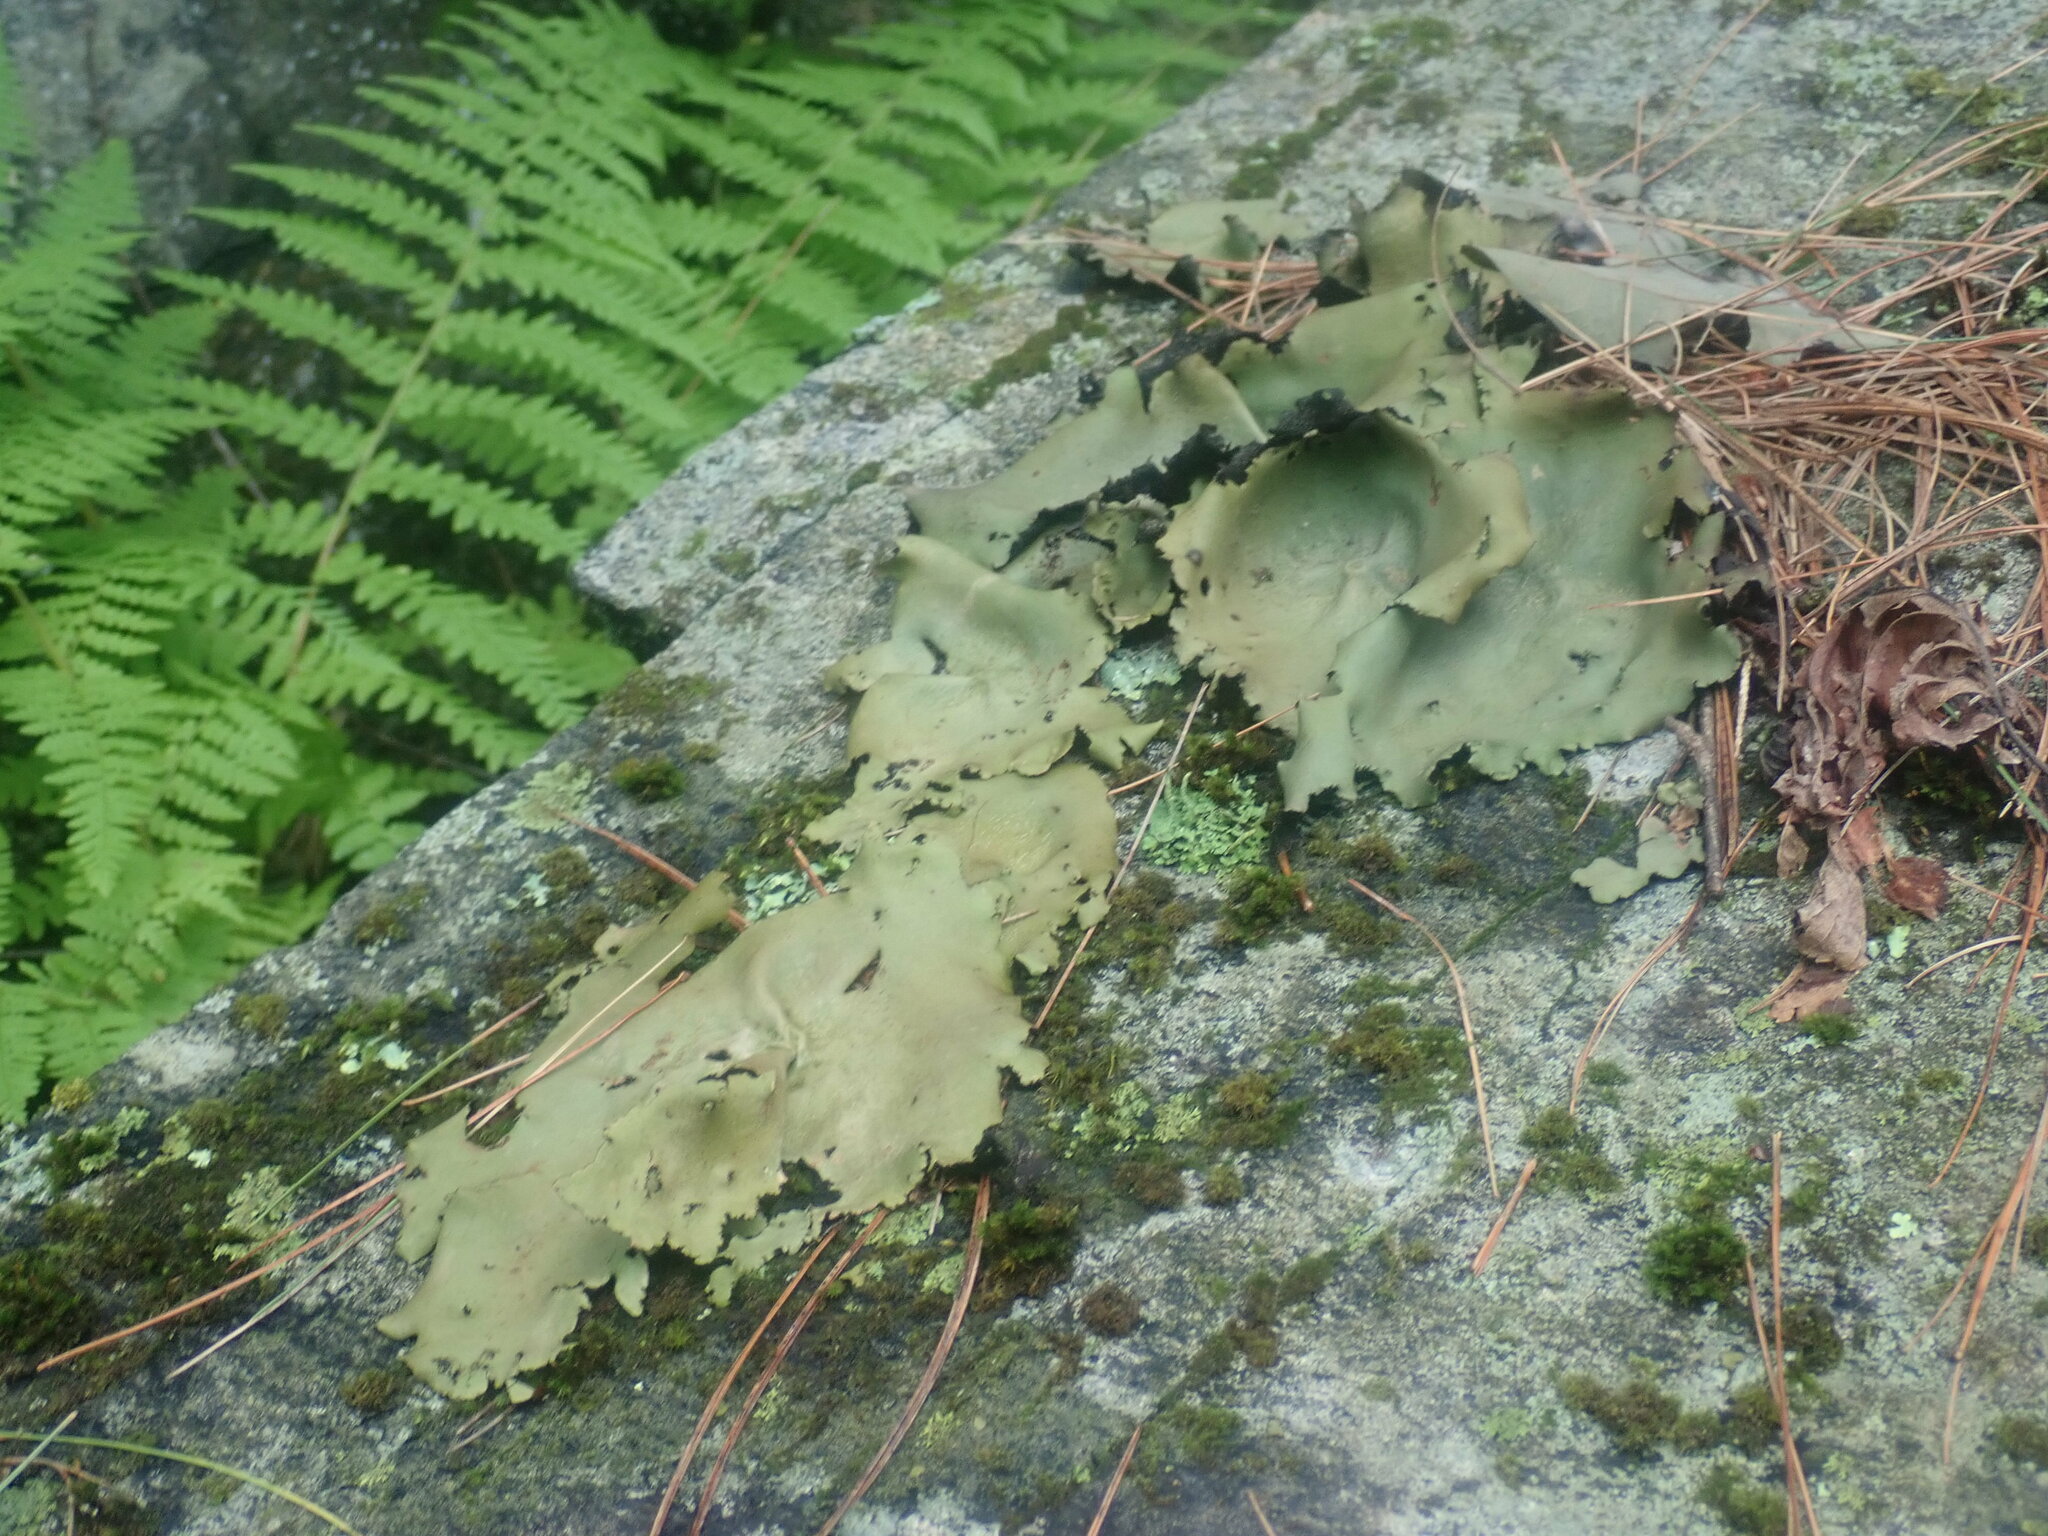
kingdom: Fungi
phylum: Ascomycota
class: Lecanoromycetes
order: Umbilicariales
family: Umbilicariaceae
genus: Umbilicaria
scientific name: Umbilicaria mammulata
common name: Smooth rock tripe
